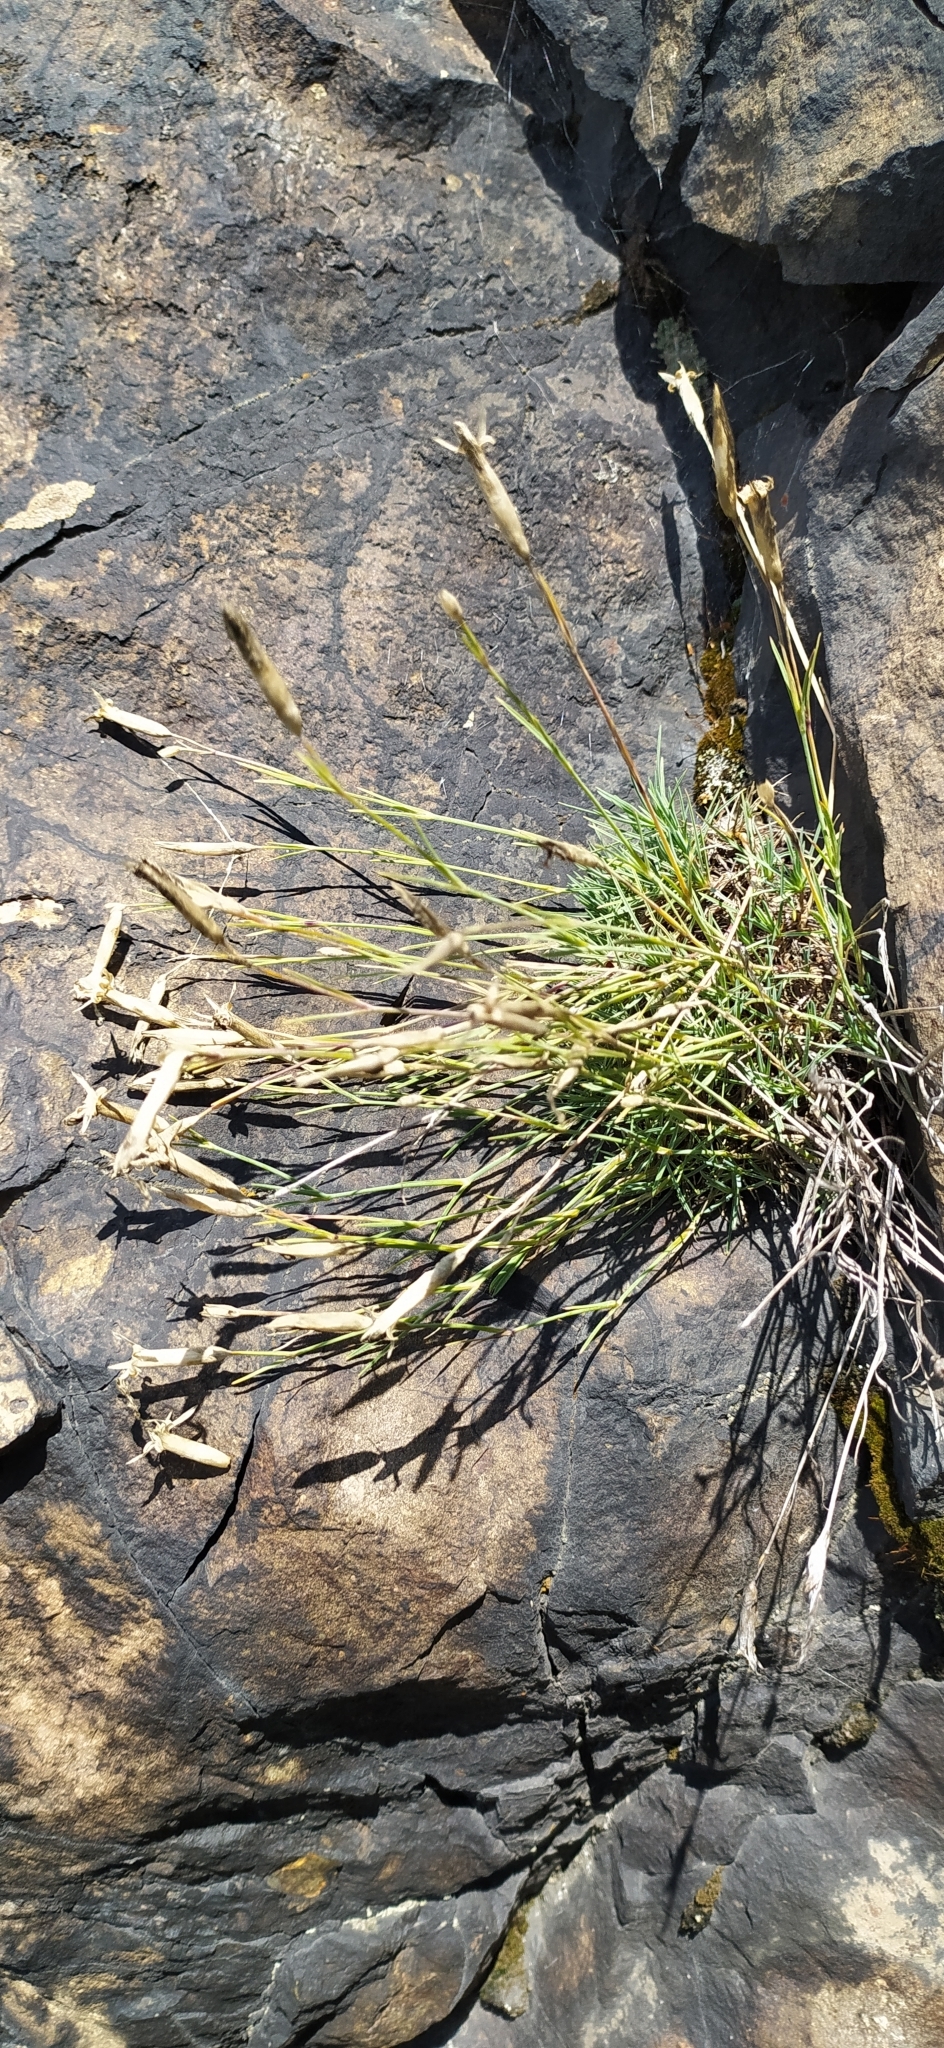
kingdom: Plantae
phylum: Tracheophyta
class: Magnoliopsida
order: Caryophyllales
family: Caryophyllaceae
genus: Dianthus
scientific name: Dianthus acicularis
